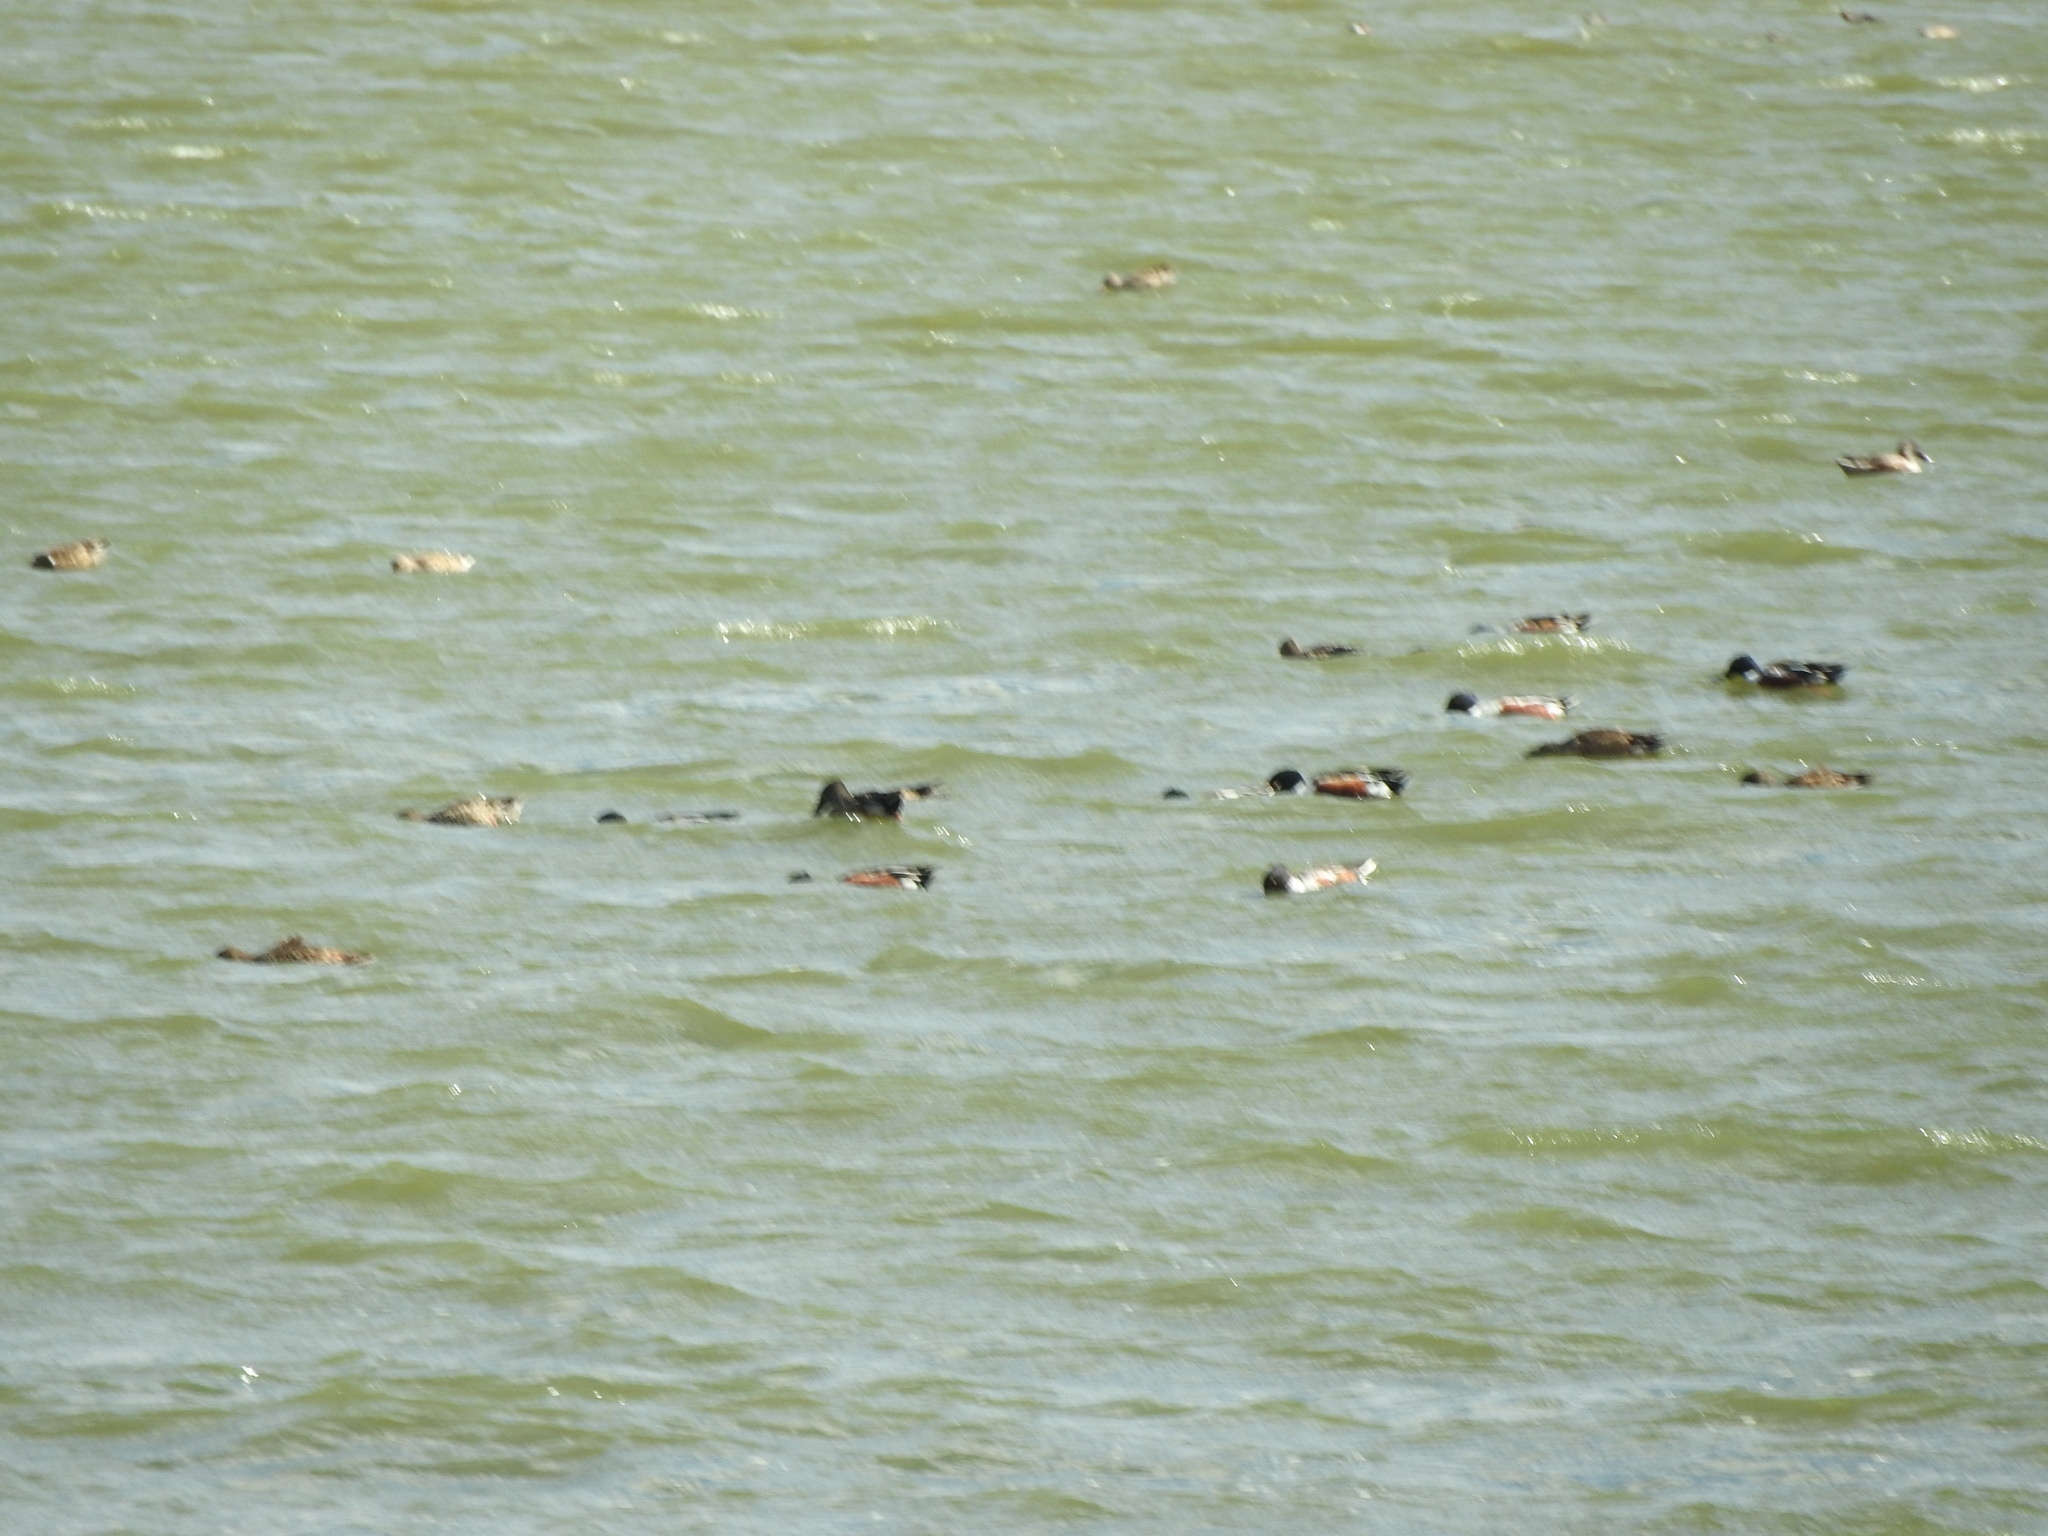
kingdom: Animalia
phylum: Chordata
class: Aves
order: Anseriformes
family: Anatidae
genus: Spatula
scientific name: Spatula clypeata
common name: Northern shoveler
